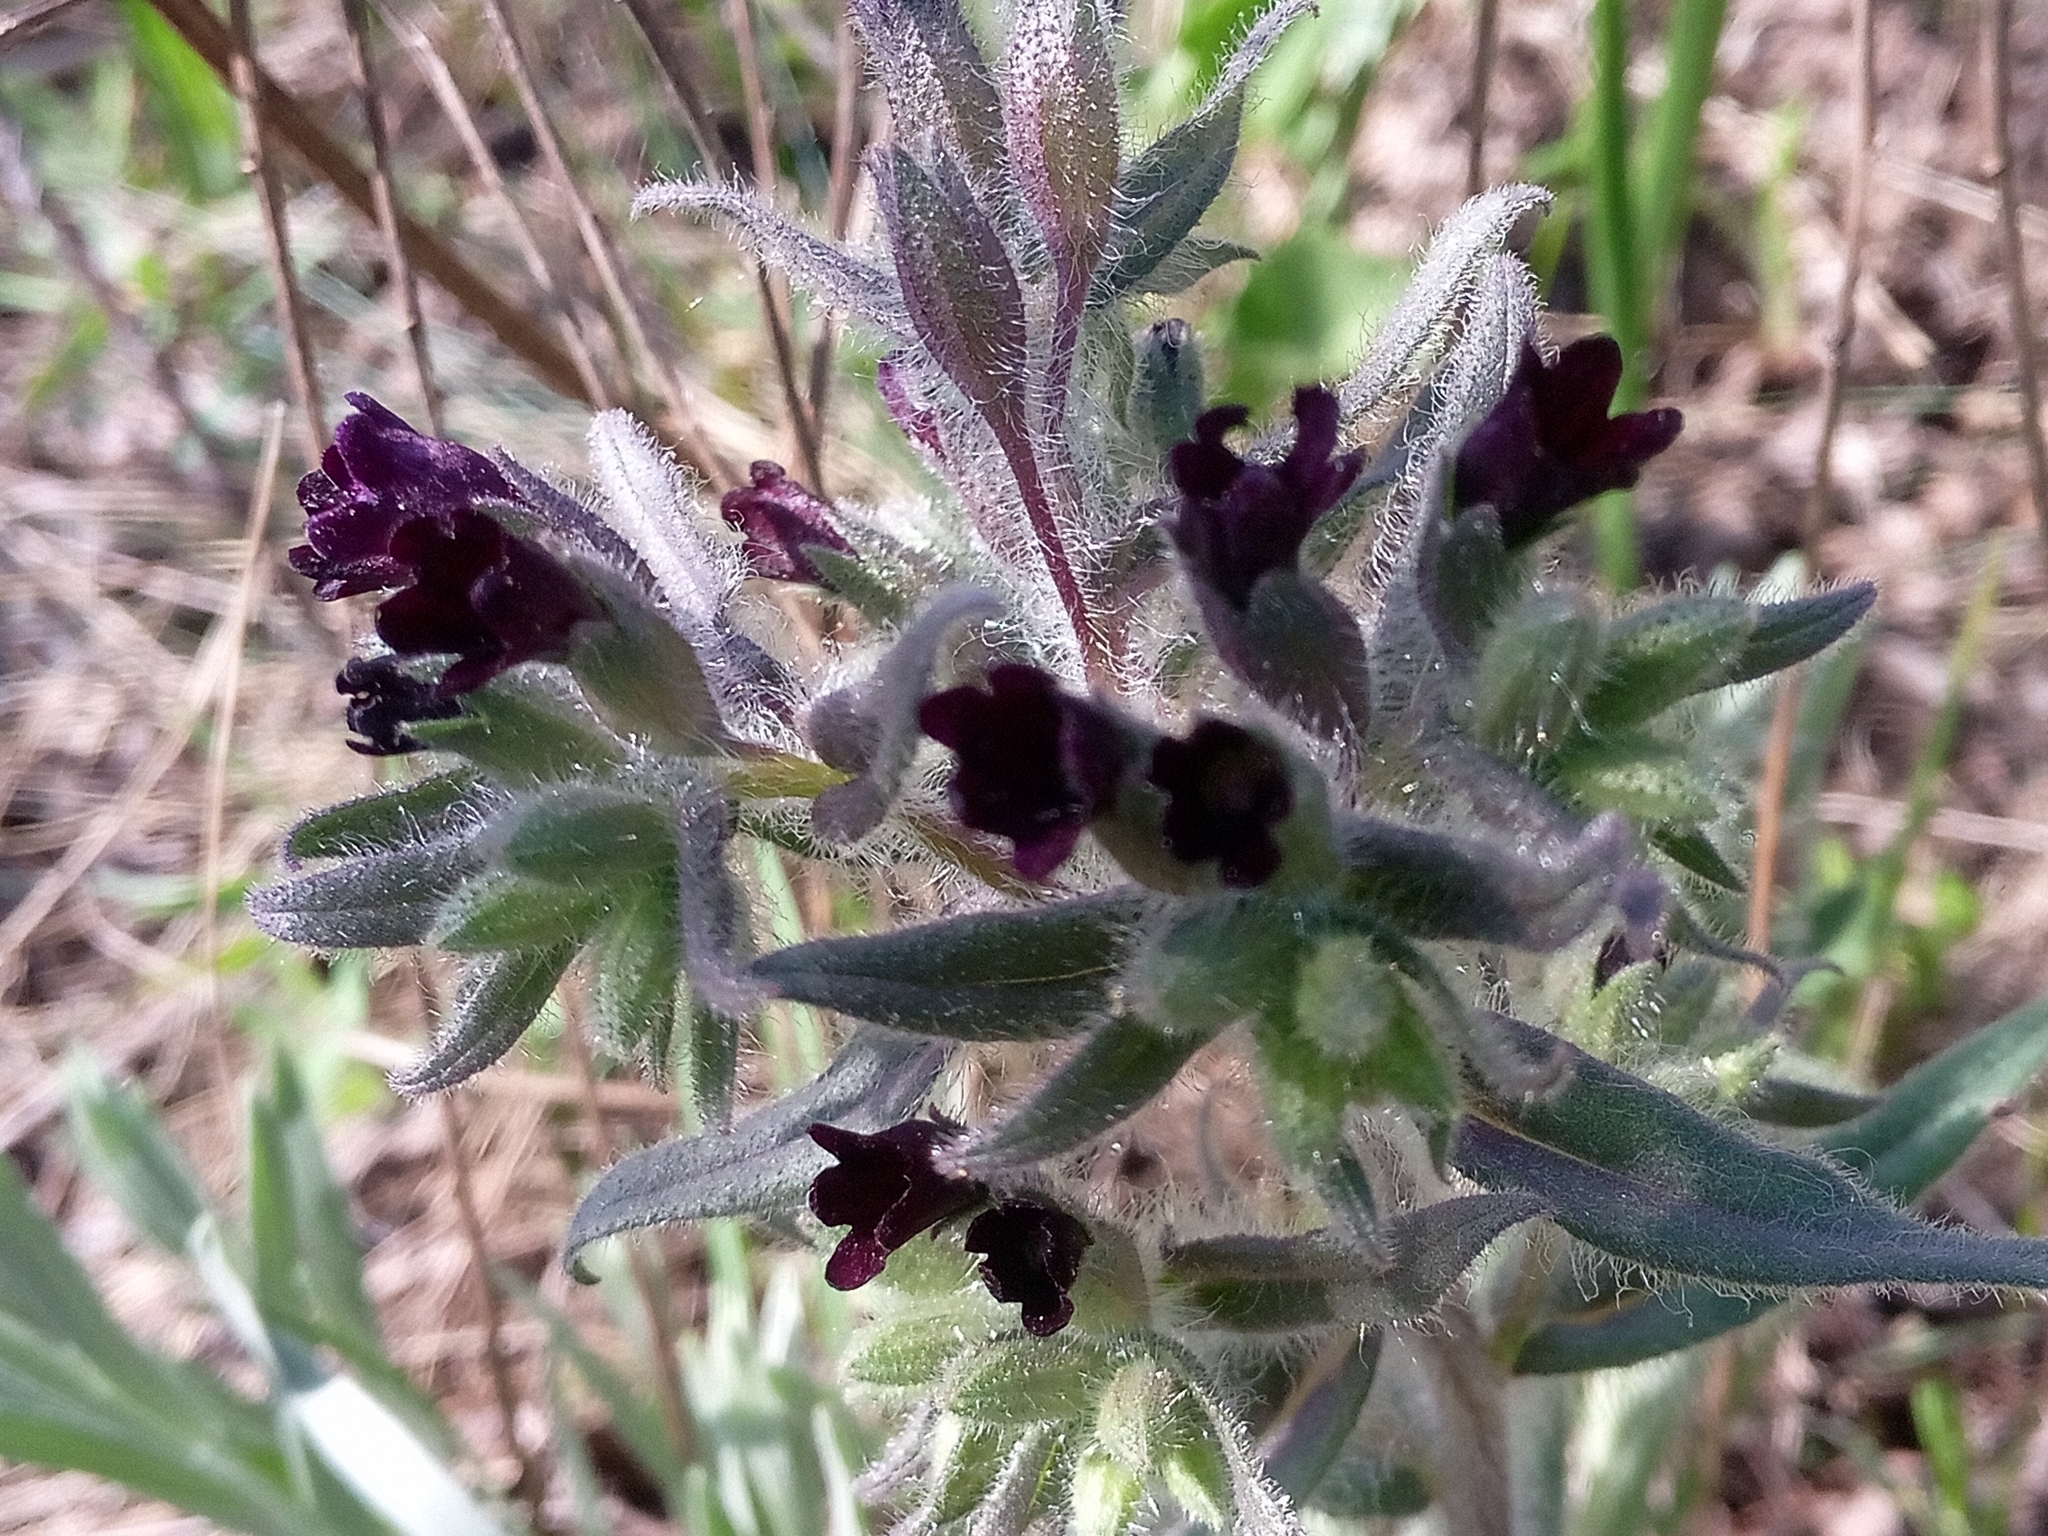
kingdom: Plantae
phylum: Tracheophyta
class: Magnoliopsida
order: Boraginales
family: Boraginaceae
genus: Nonea
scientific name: Nonea pulla
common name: Brown nonea
